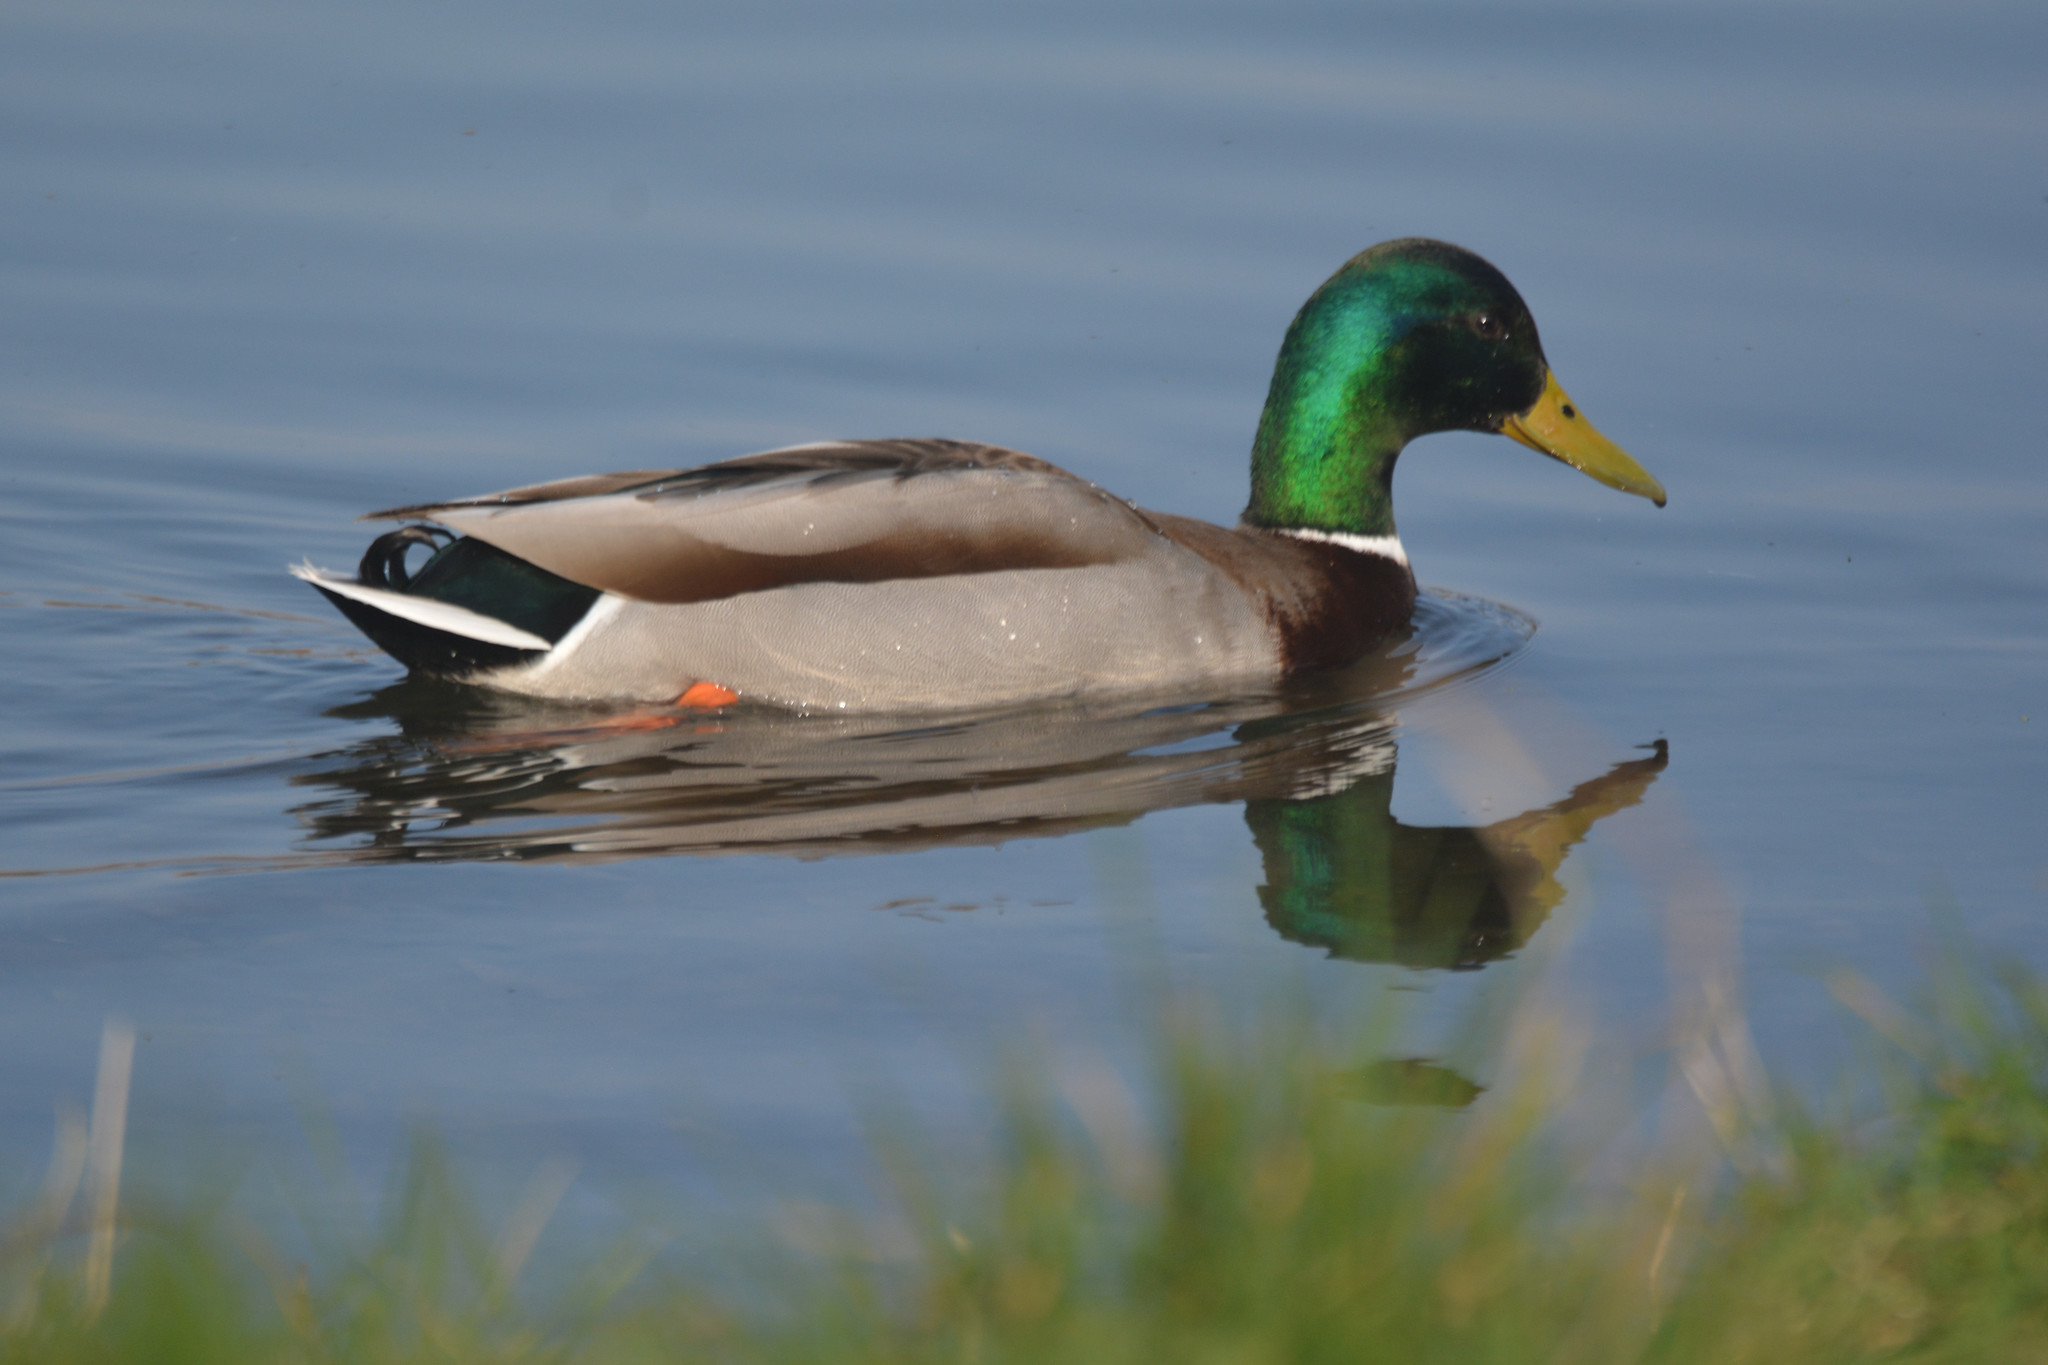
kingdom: Animalia
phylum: Chordata
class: Aves
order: Anseriformes
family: Anatidae
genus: Anas
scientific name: Anas platyrhynchos
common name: Mallard
